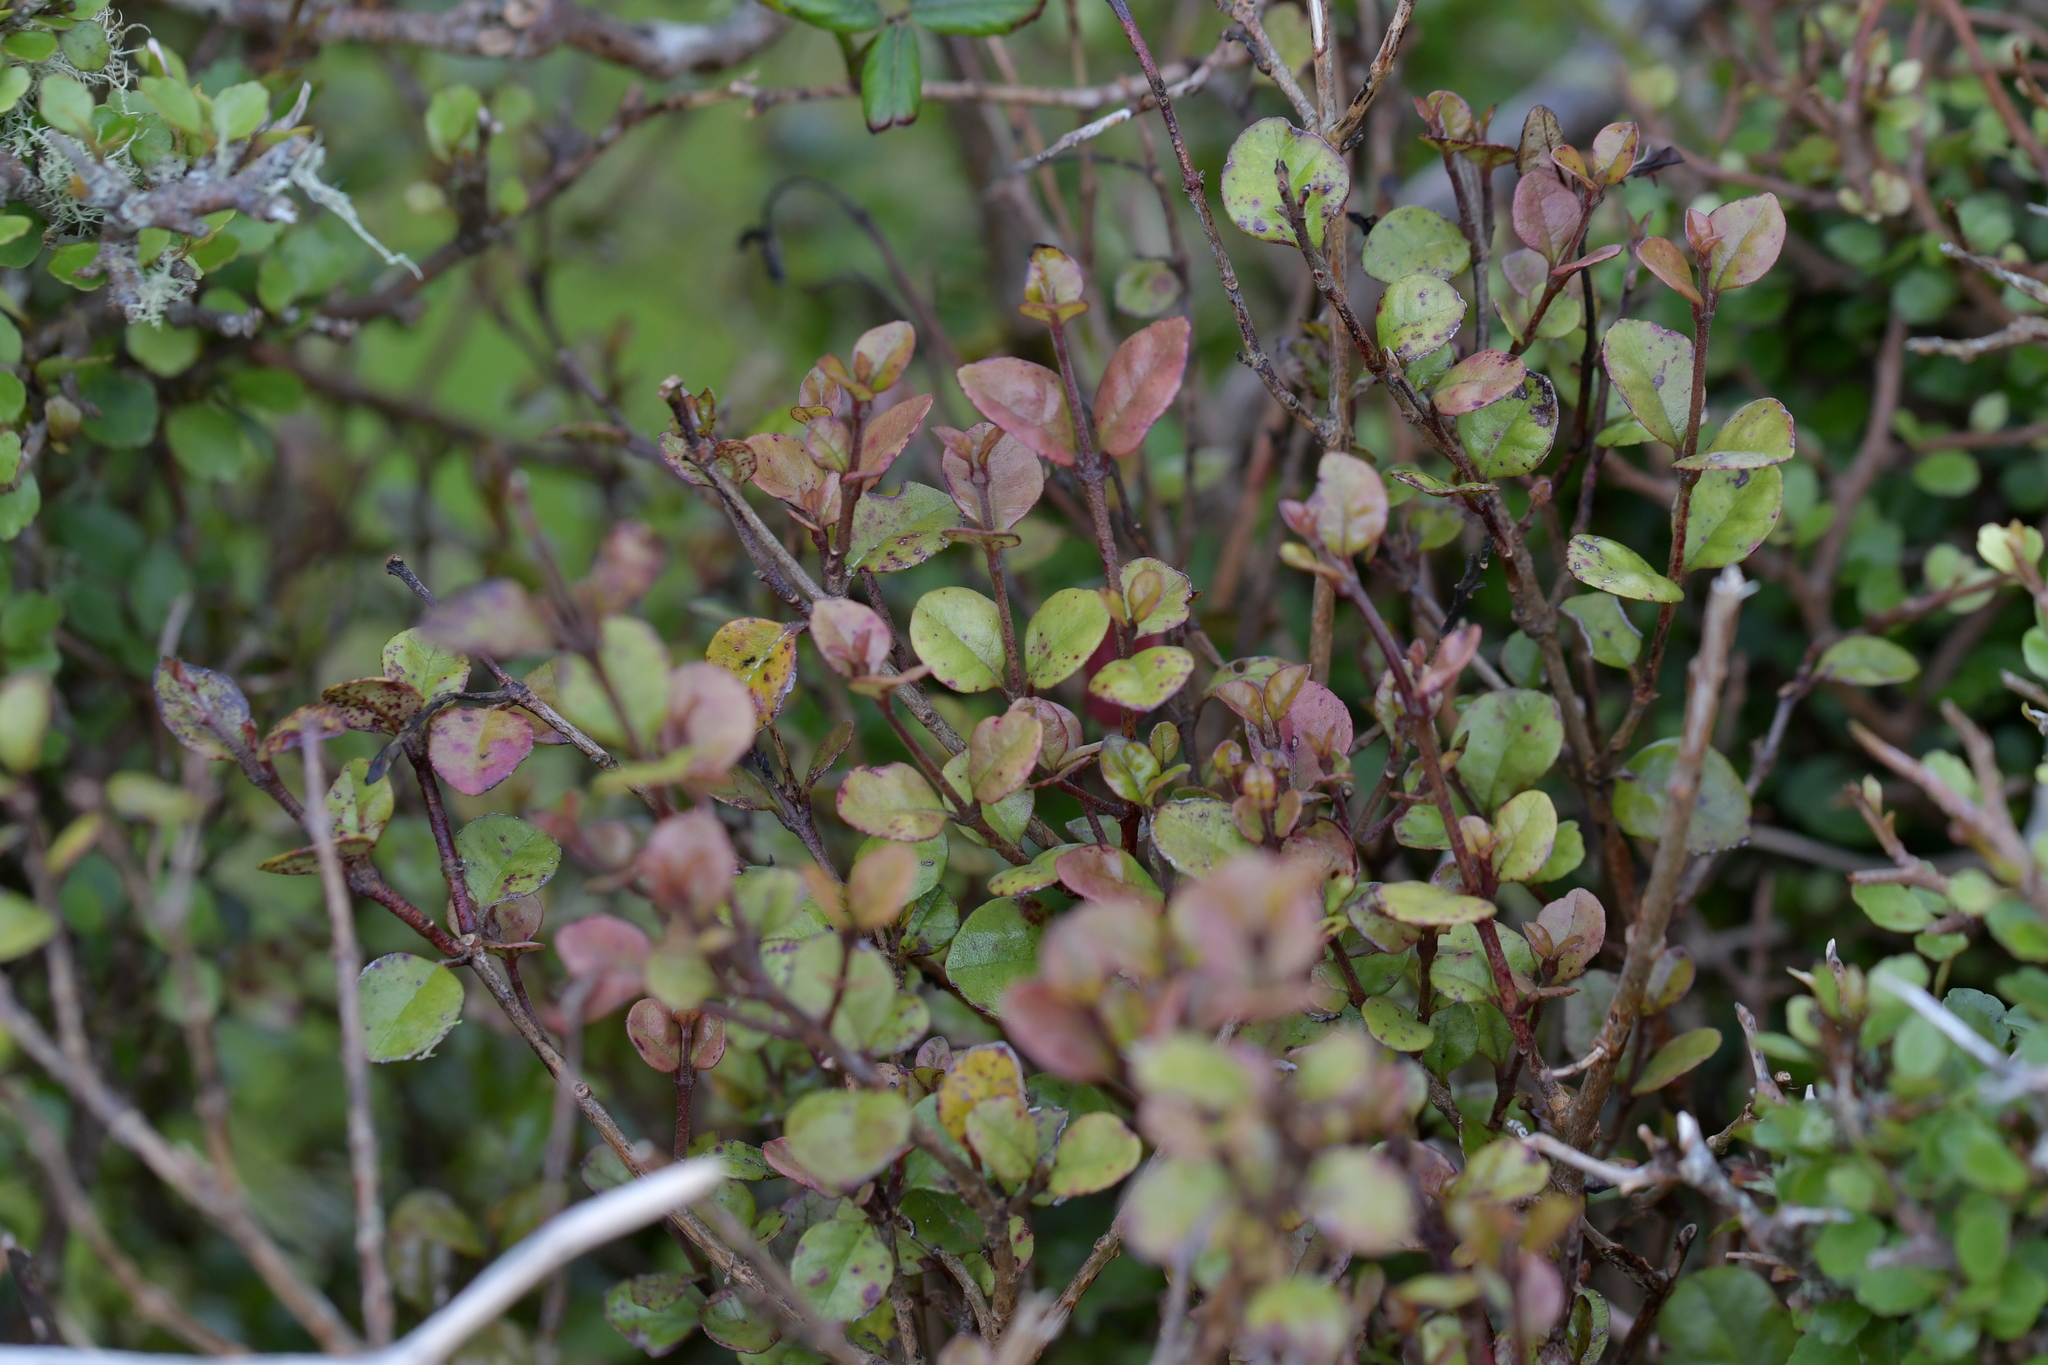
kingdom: Plantae
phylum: Tracheophyta
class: Magnoliopsida
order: Myrtales
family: Myrtaceae
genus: Lophomyrtus
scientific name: Lophomyrtus ralphii
